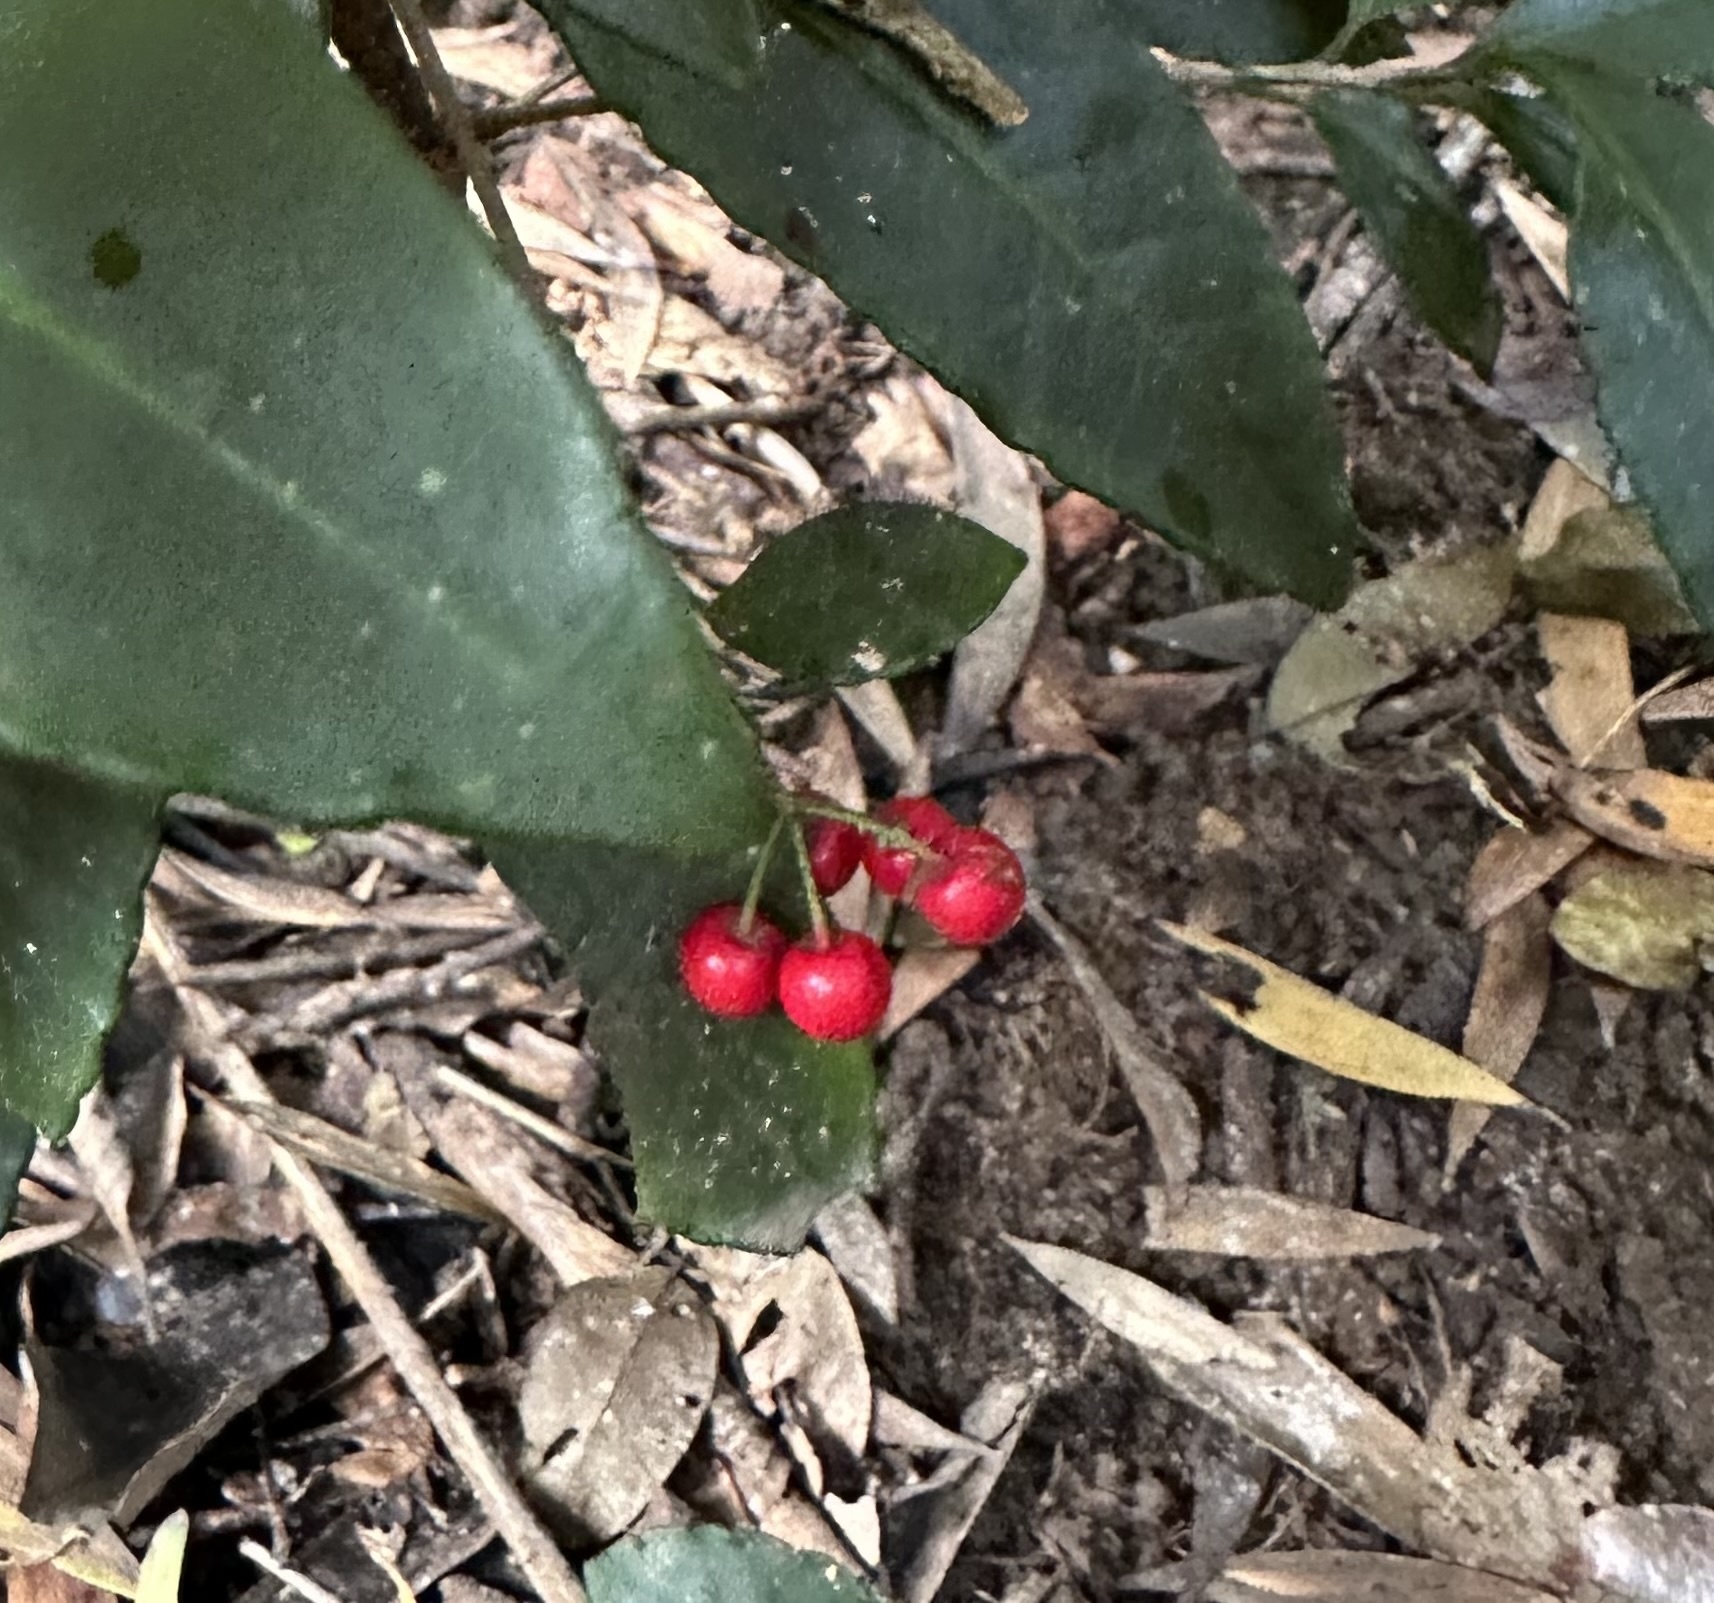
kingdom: Plantae
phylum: Tracheophyta
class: Magnoliopsida
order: Ericales
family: Primulaceae
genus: Ardisia
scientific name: Ardisia crenata
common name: Hen's eyes
